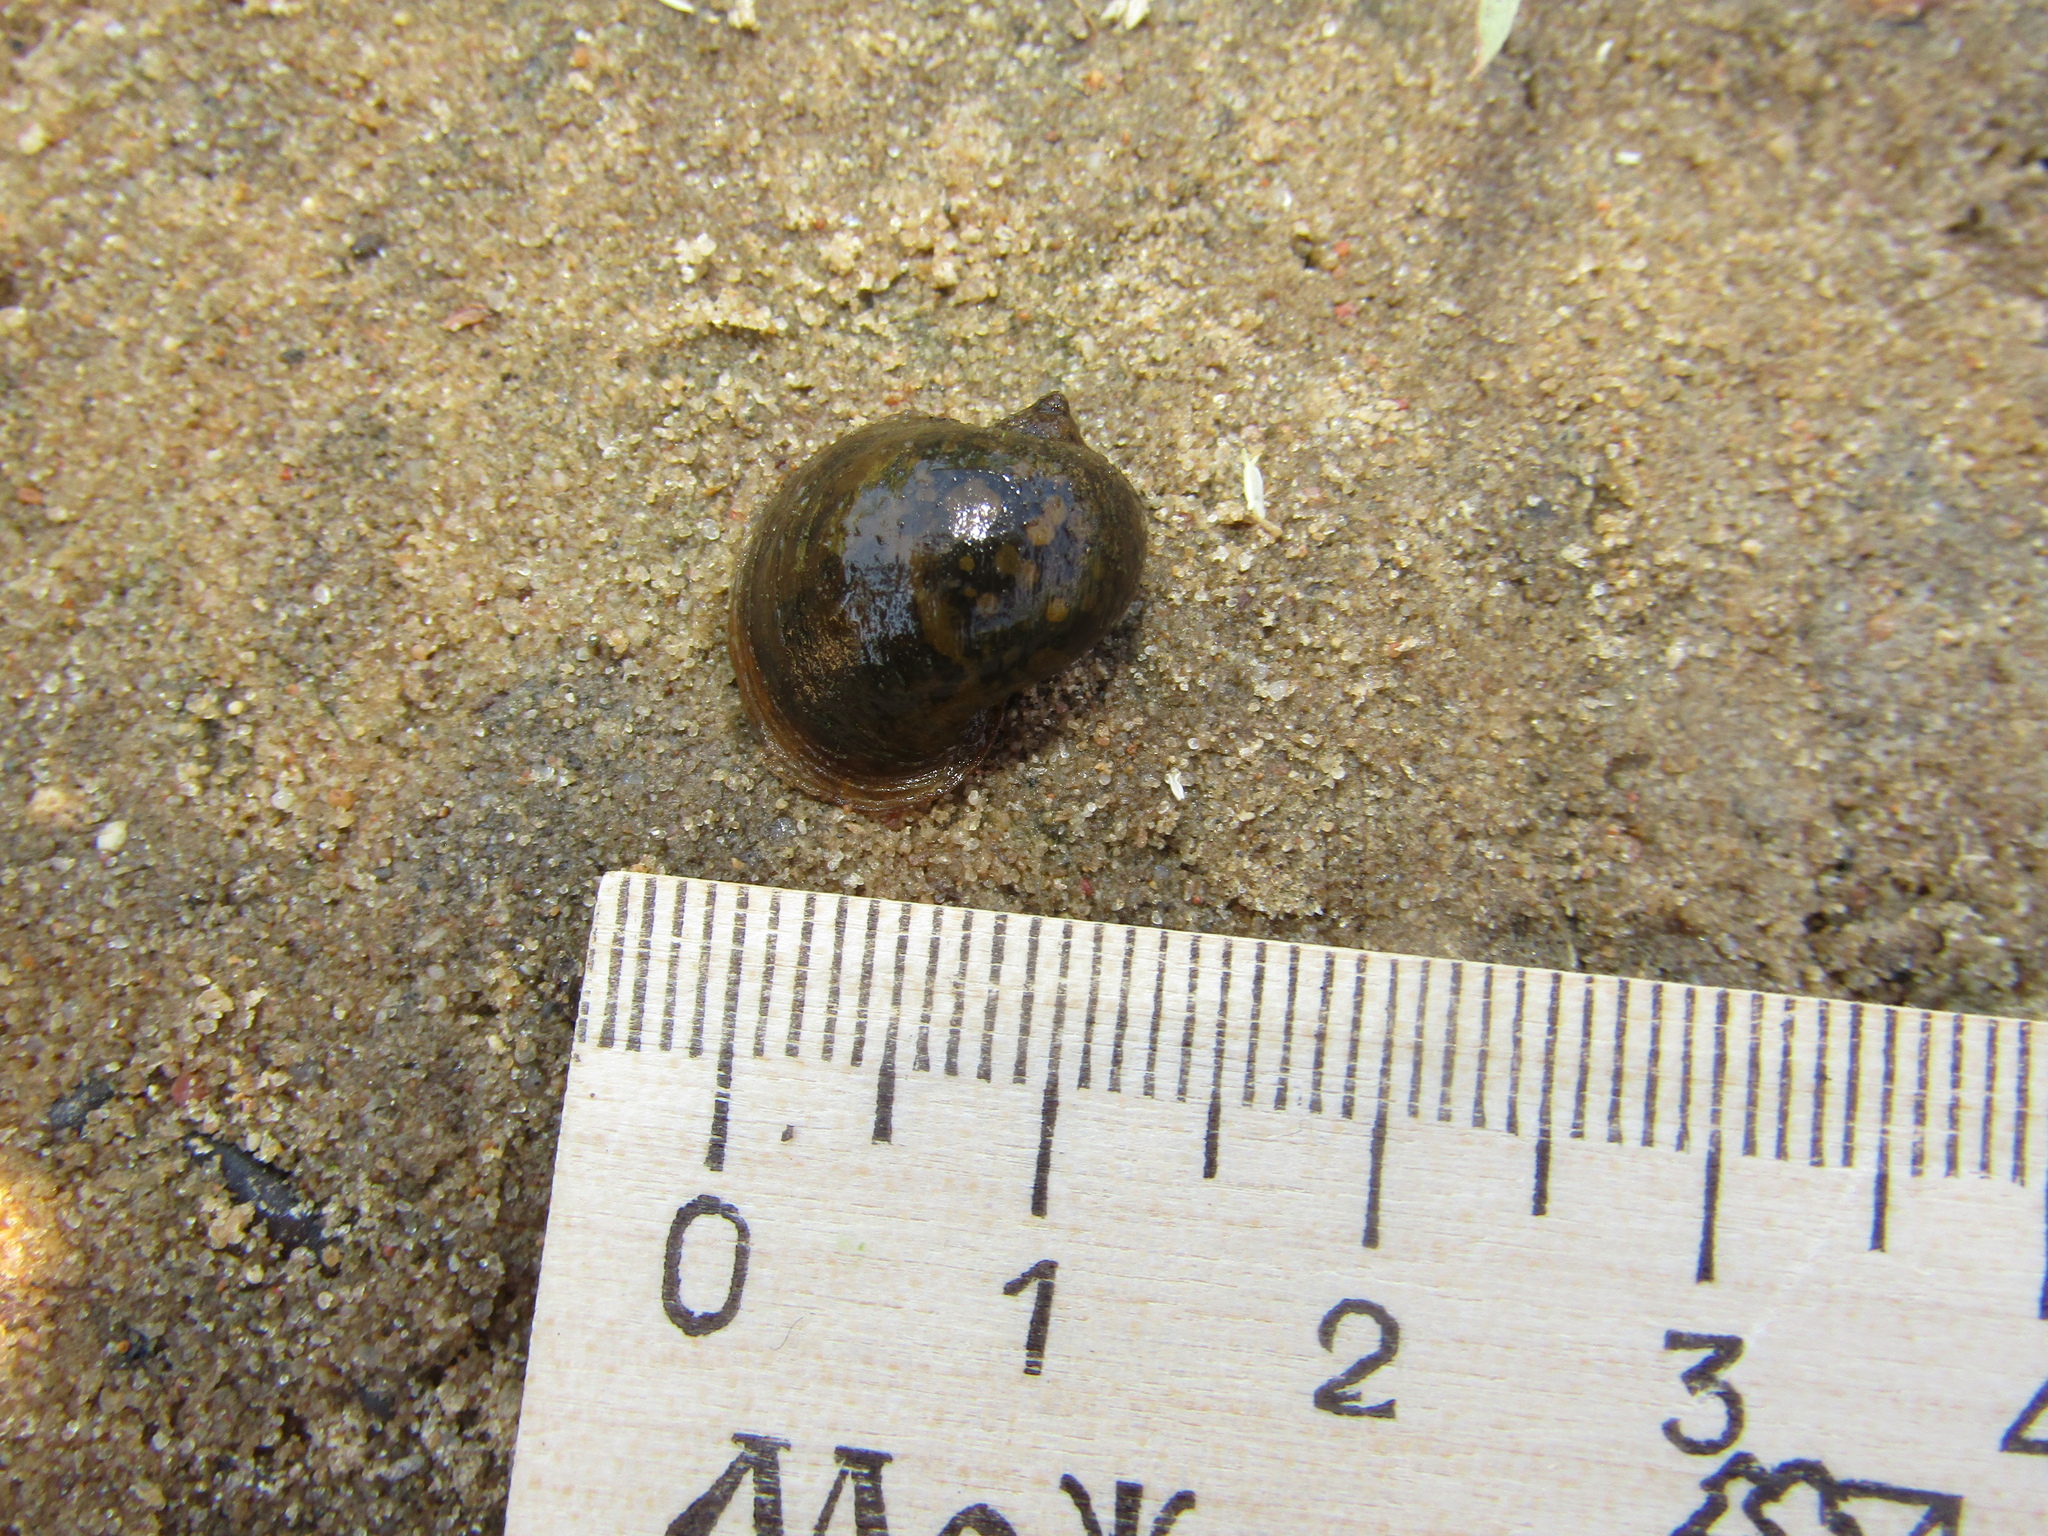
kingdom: Animalia
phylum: Mollusca
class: Gastropoda
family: Lymnaeidae
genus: Radix
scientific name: Radix auricularia
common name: Ear pond snail
